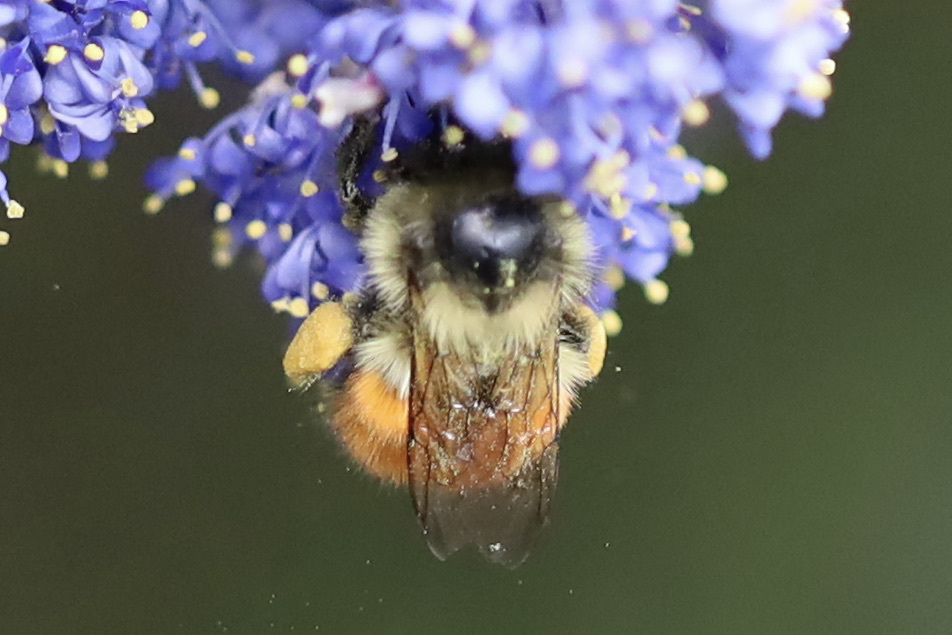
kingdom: Animalia
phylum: Arthropoda
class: Insecta
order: Hymenoptera
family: Apidae
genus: Bombus
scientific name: Bombus melanopygus
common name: Black tail bumble bee
